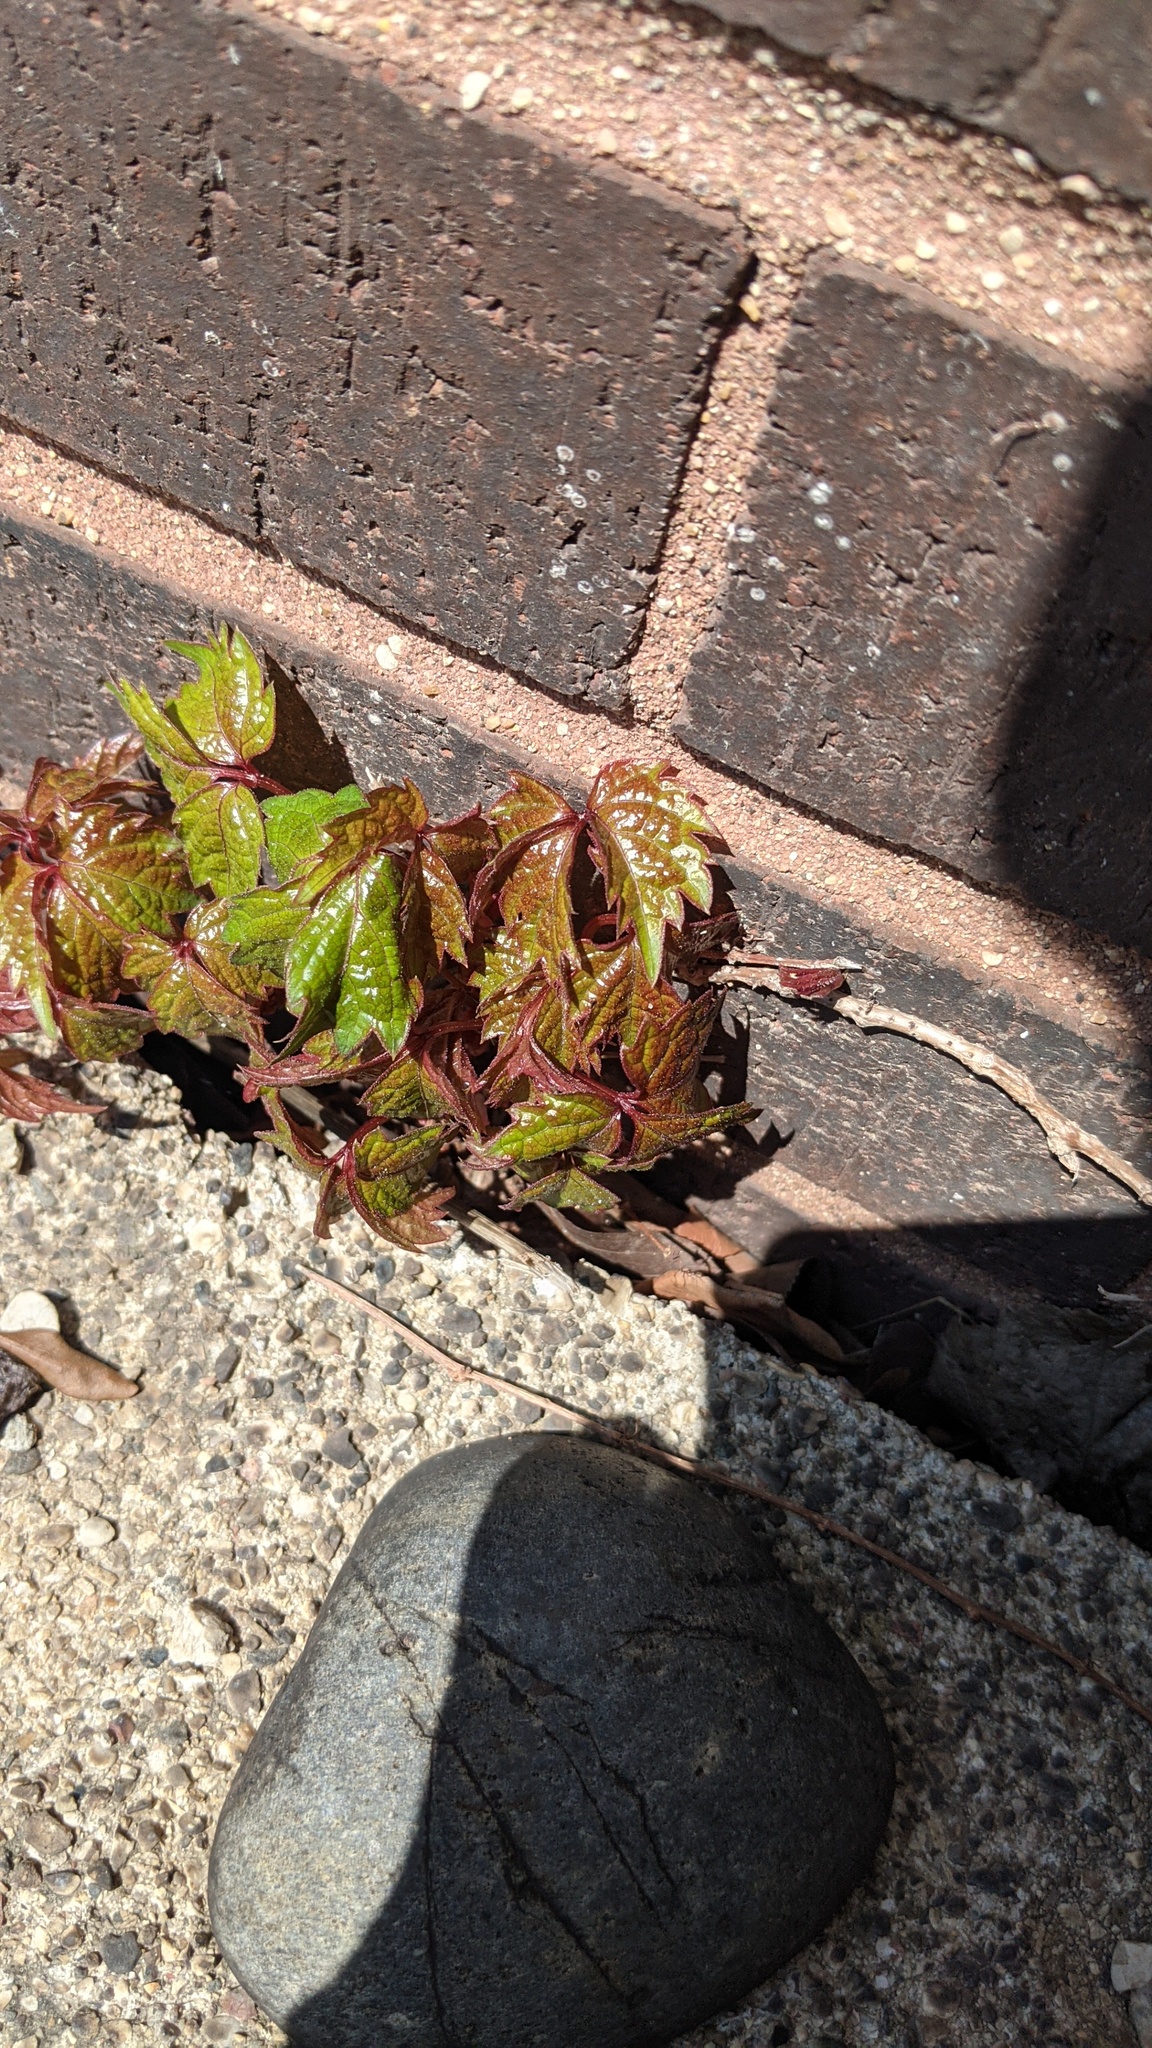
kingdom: Plantae
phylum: Tracheophyta
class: Magnoliopsida
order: Vitales
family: Vitaceae
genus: Parthenocissus
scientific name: Parthenocissus tricuspidata
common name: Boston ivy
